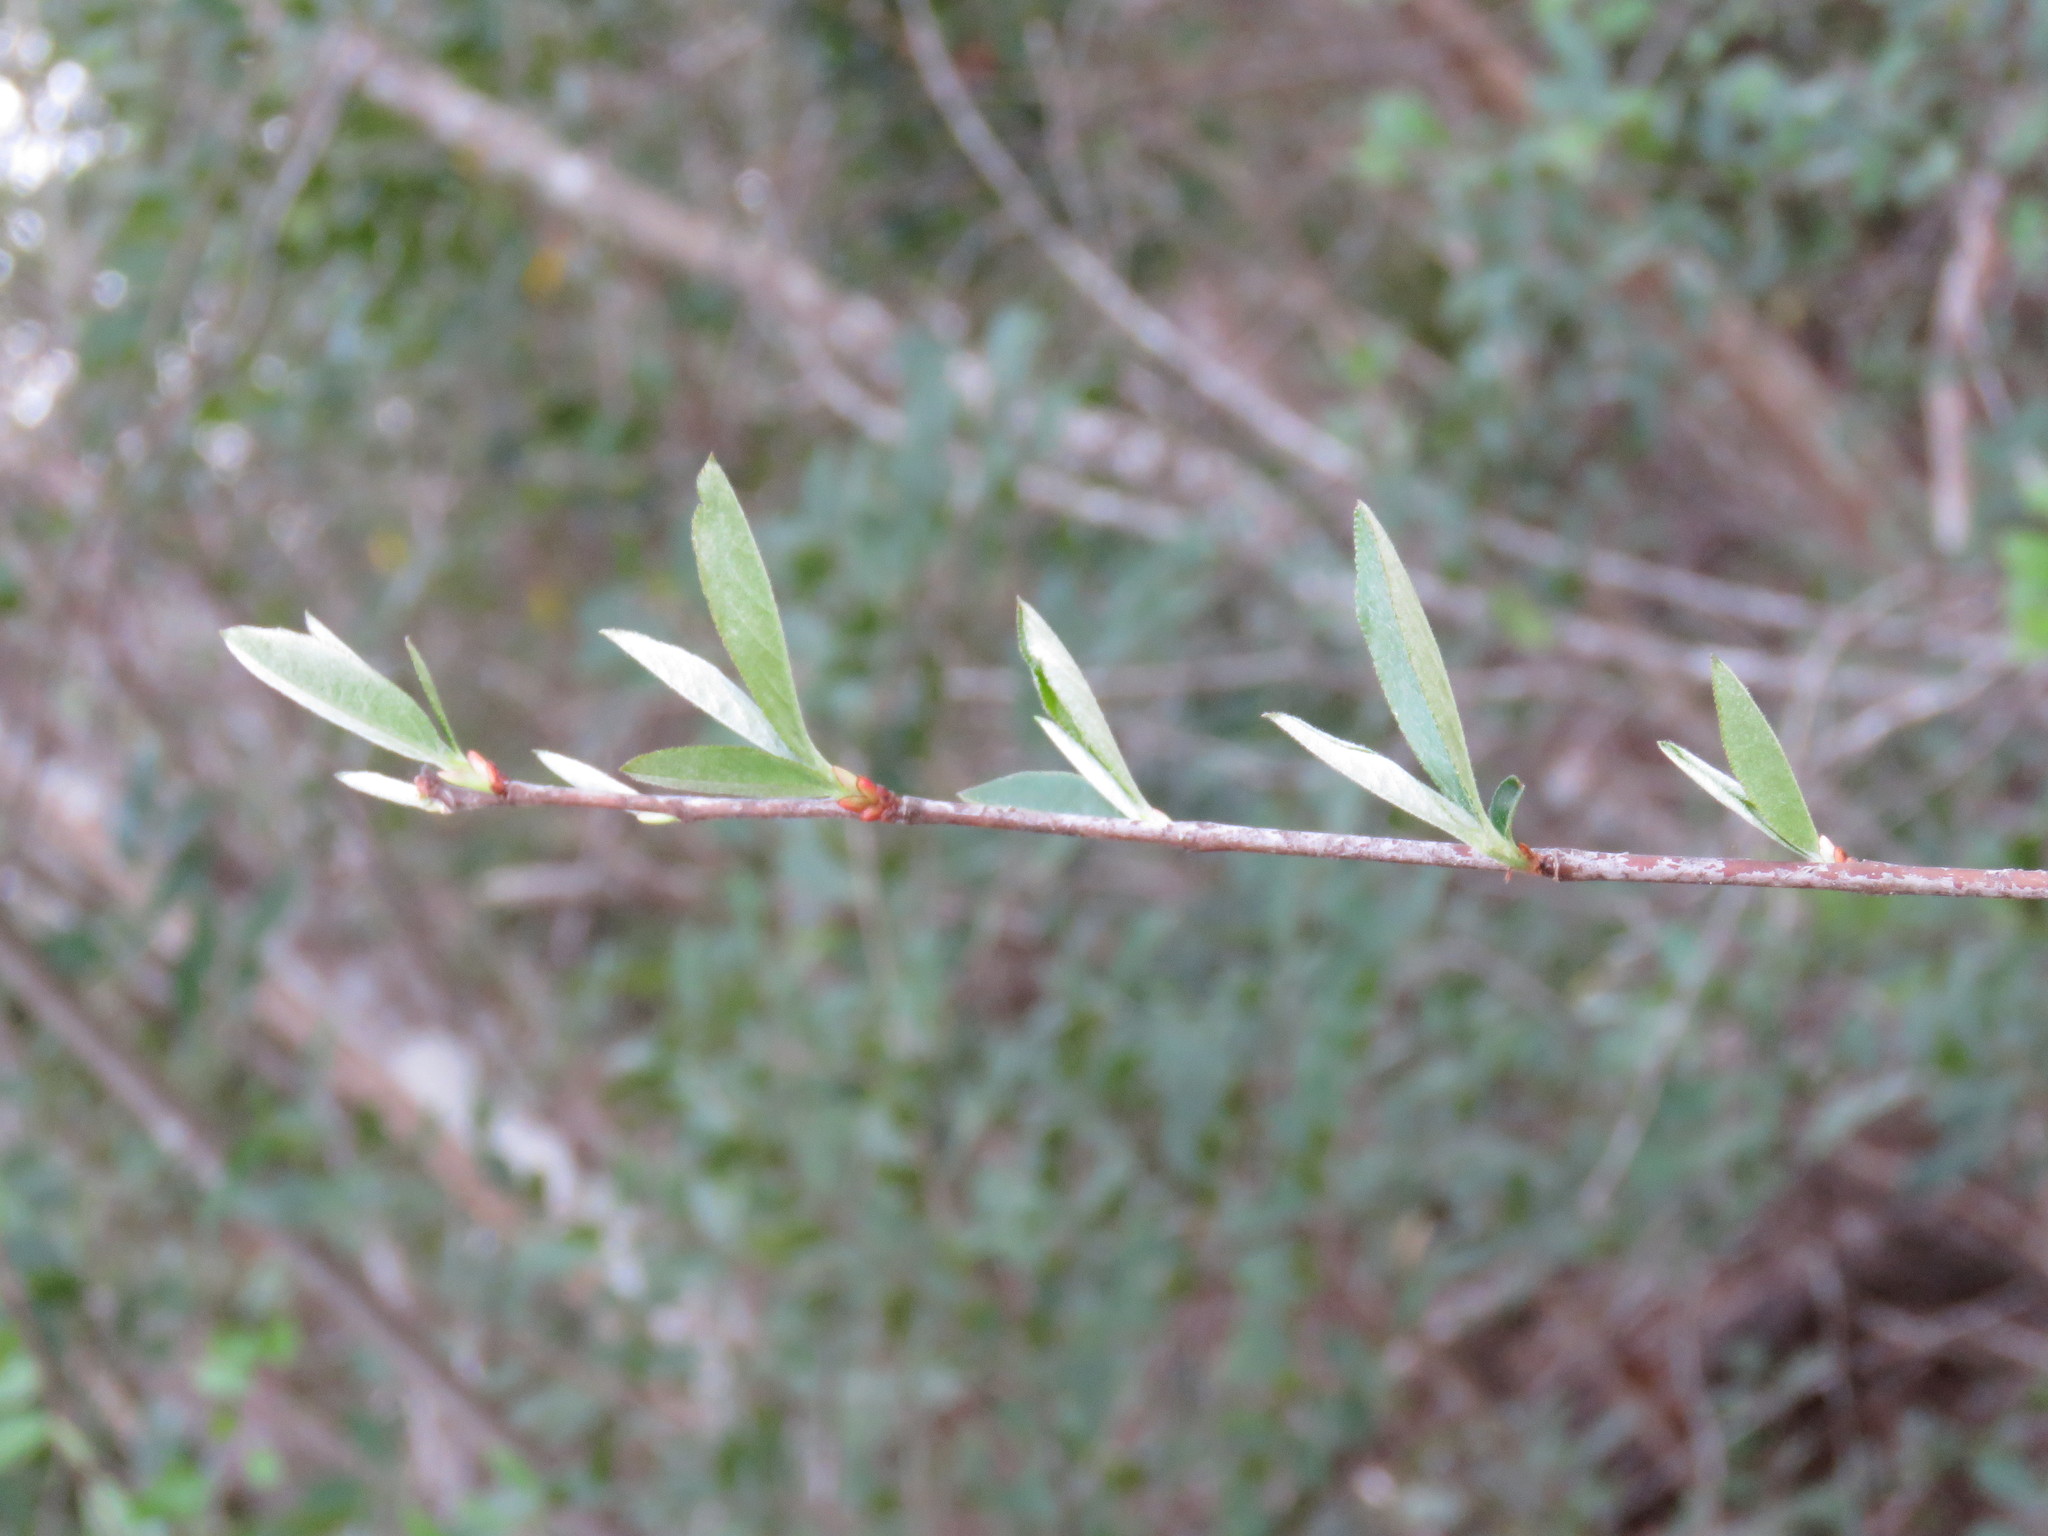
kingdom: Plantae
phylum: Tracheophyta
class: Magnoliopsida
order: Rosales
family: Rosaceae
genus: Aronia
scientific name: Aronia arbutifolia
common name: Red chokeberry
